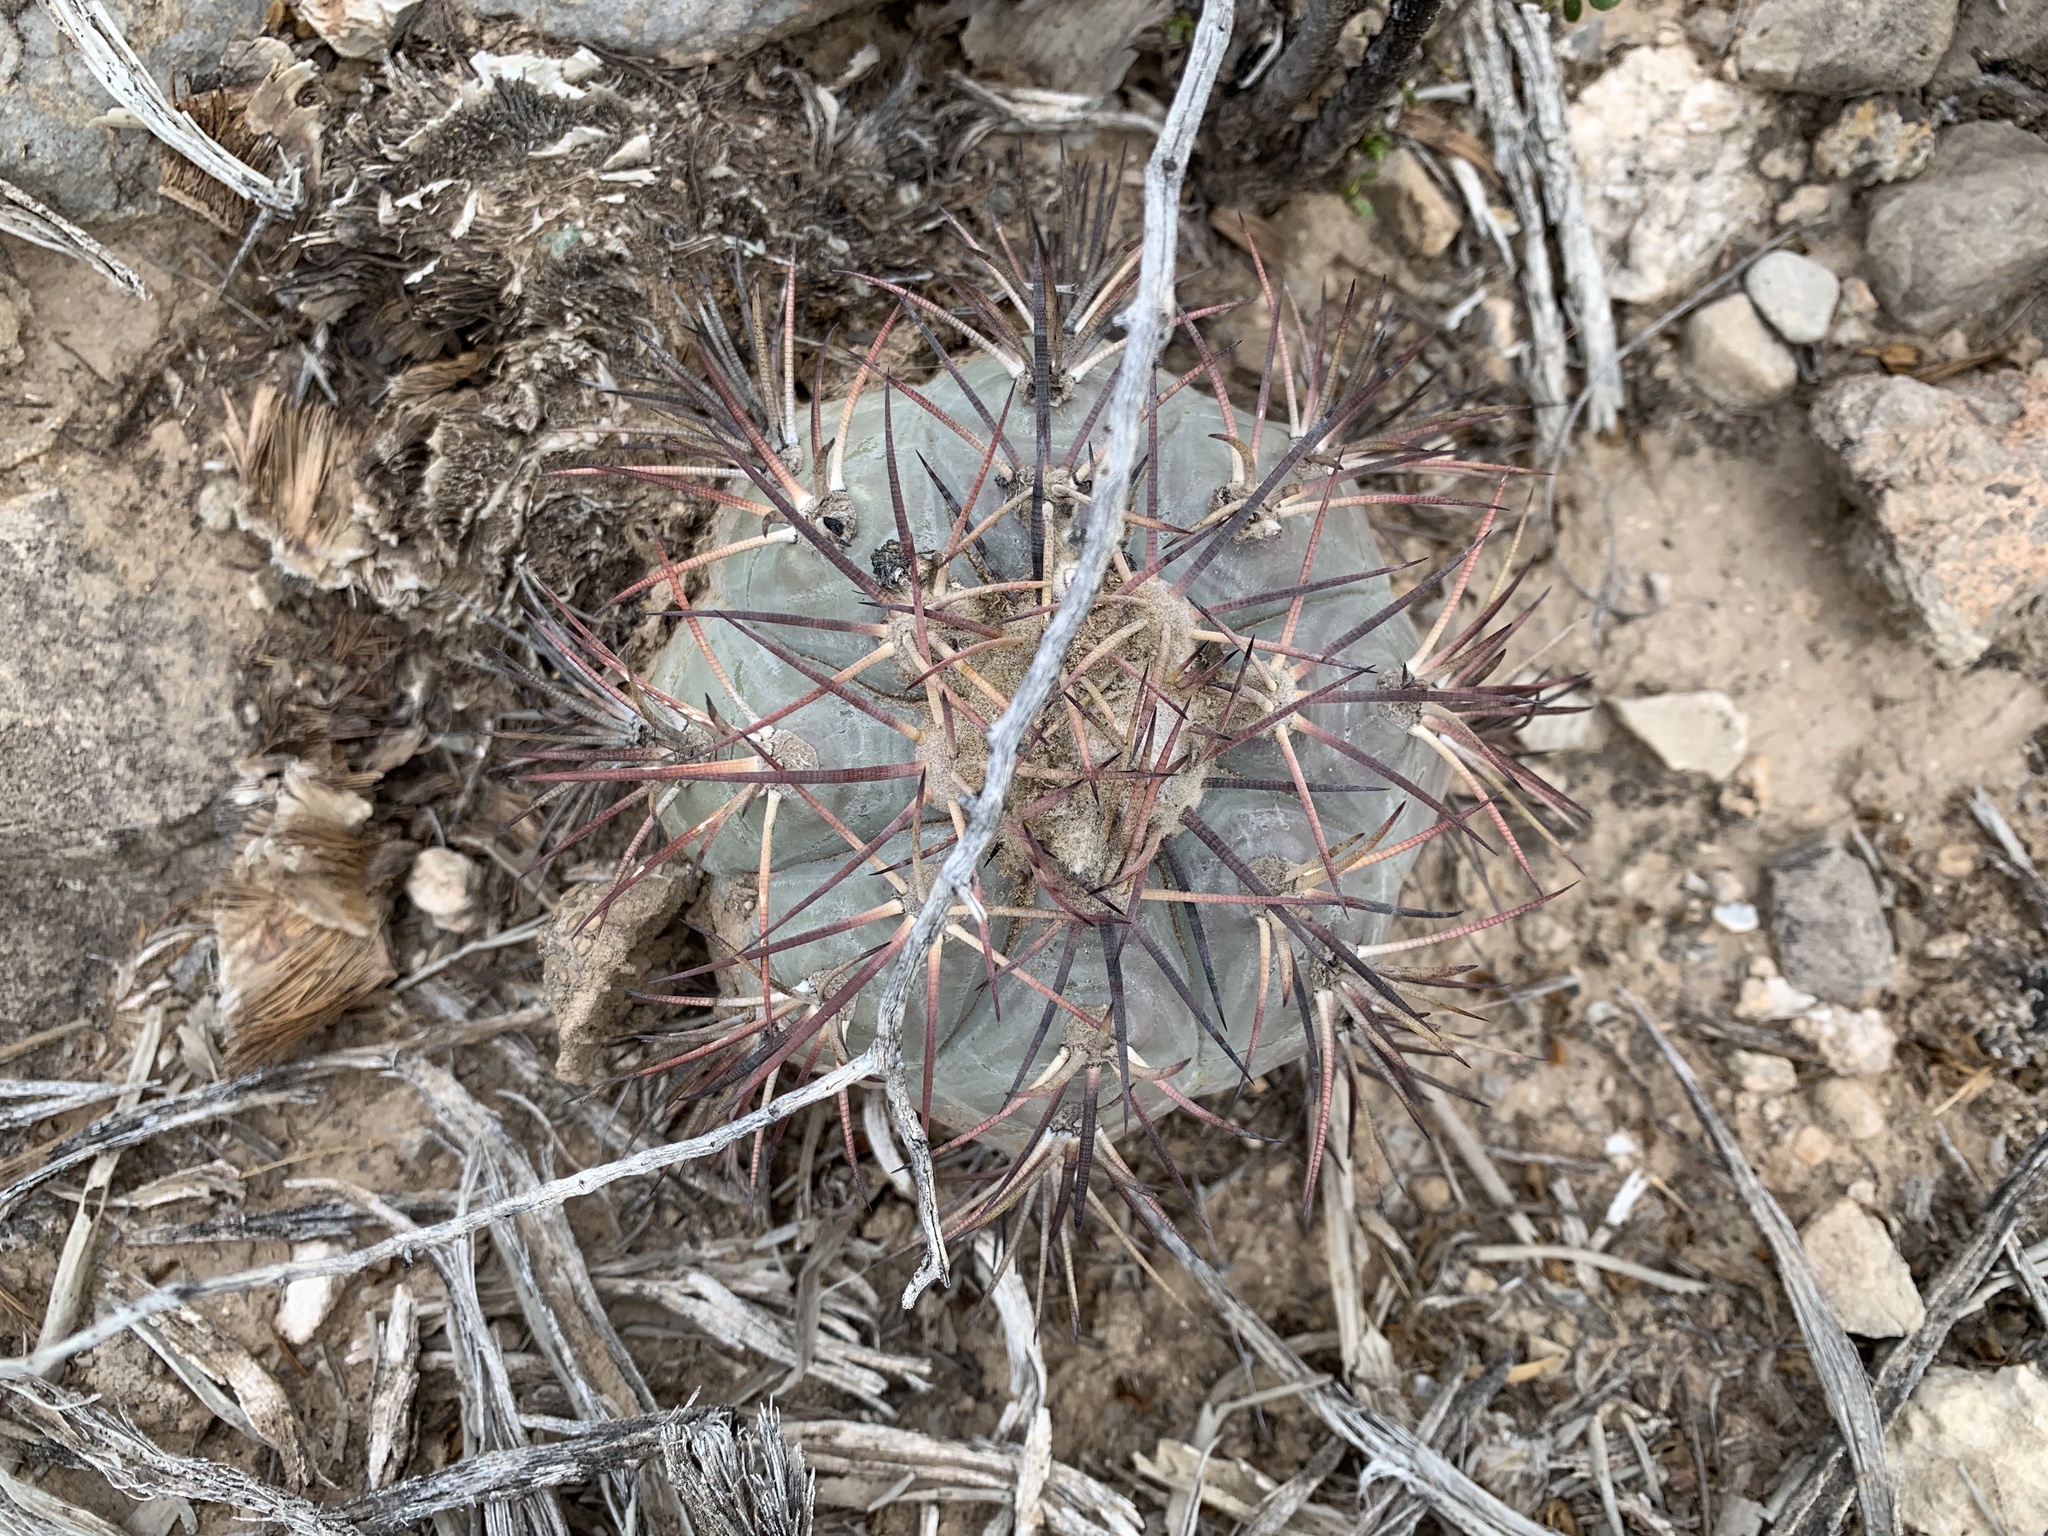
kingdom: Plantae
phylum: Tracheophyta
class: Magnoliopsida
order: Caryophyllales
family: Cactaceae
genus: Echinocactus
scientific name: Echinocactus horizonthalonius
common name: Devilshead
